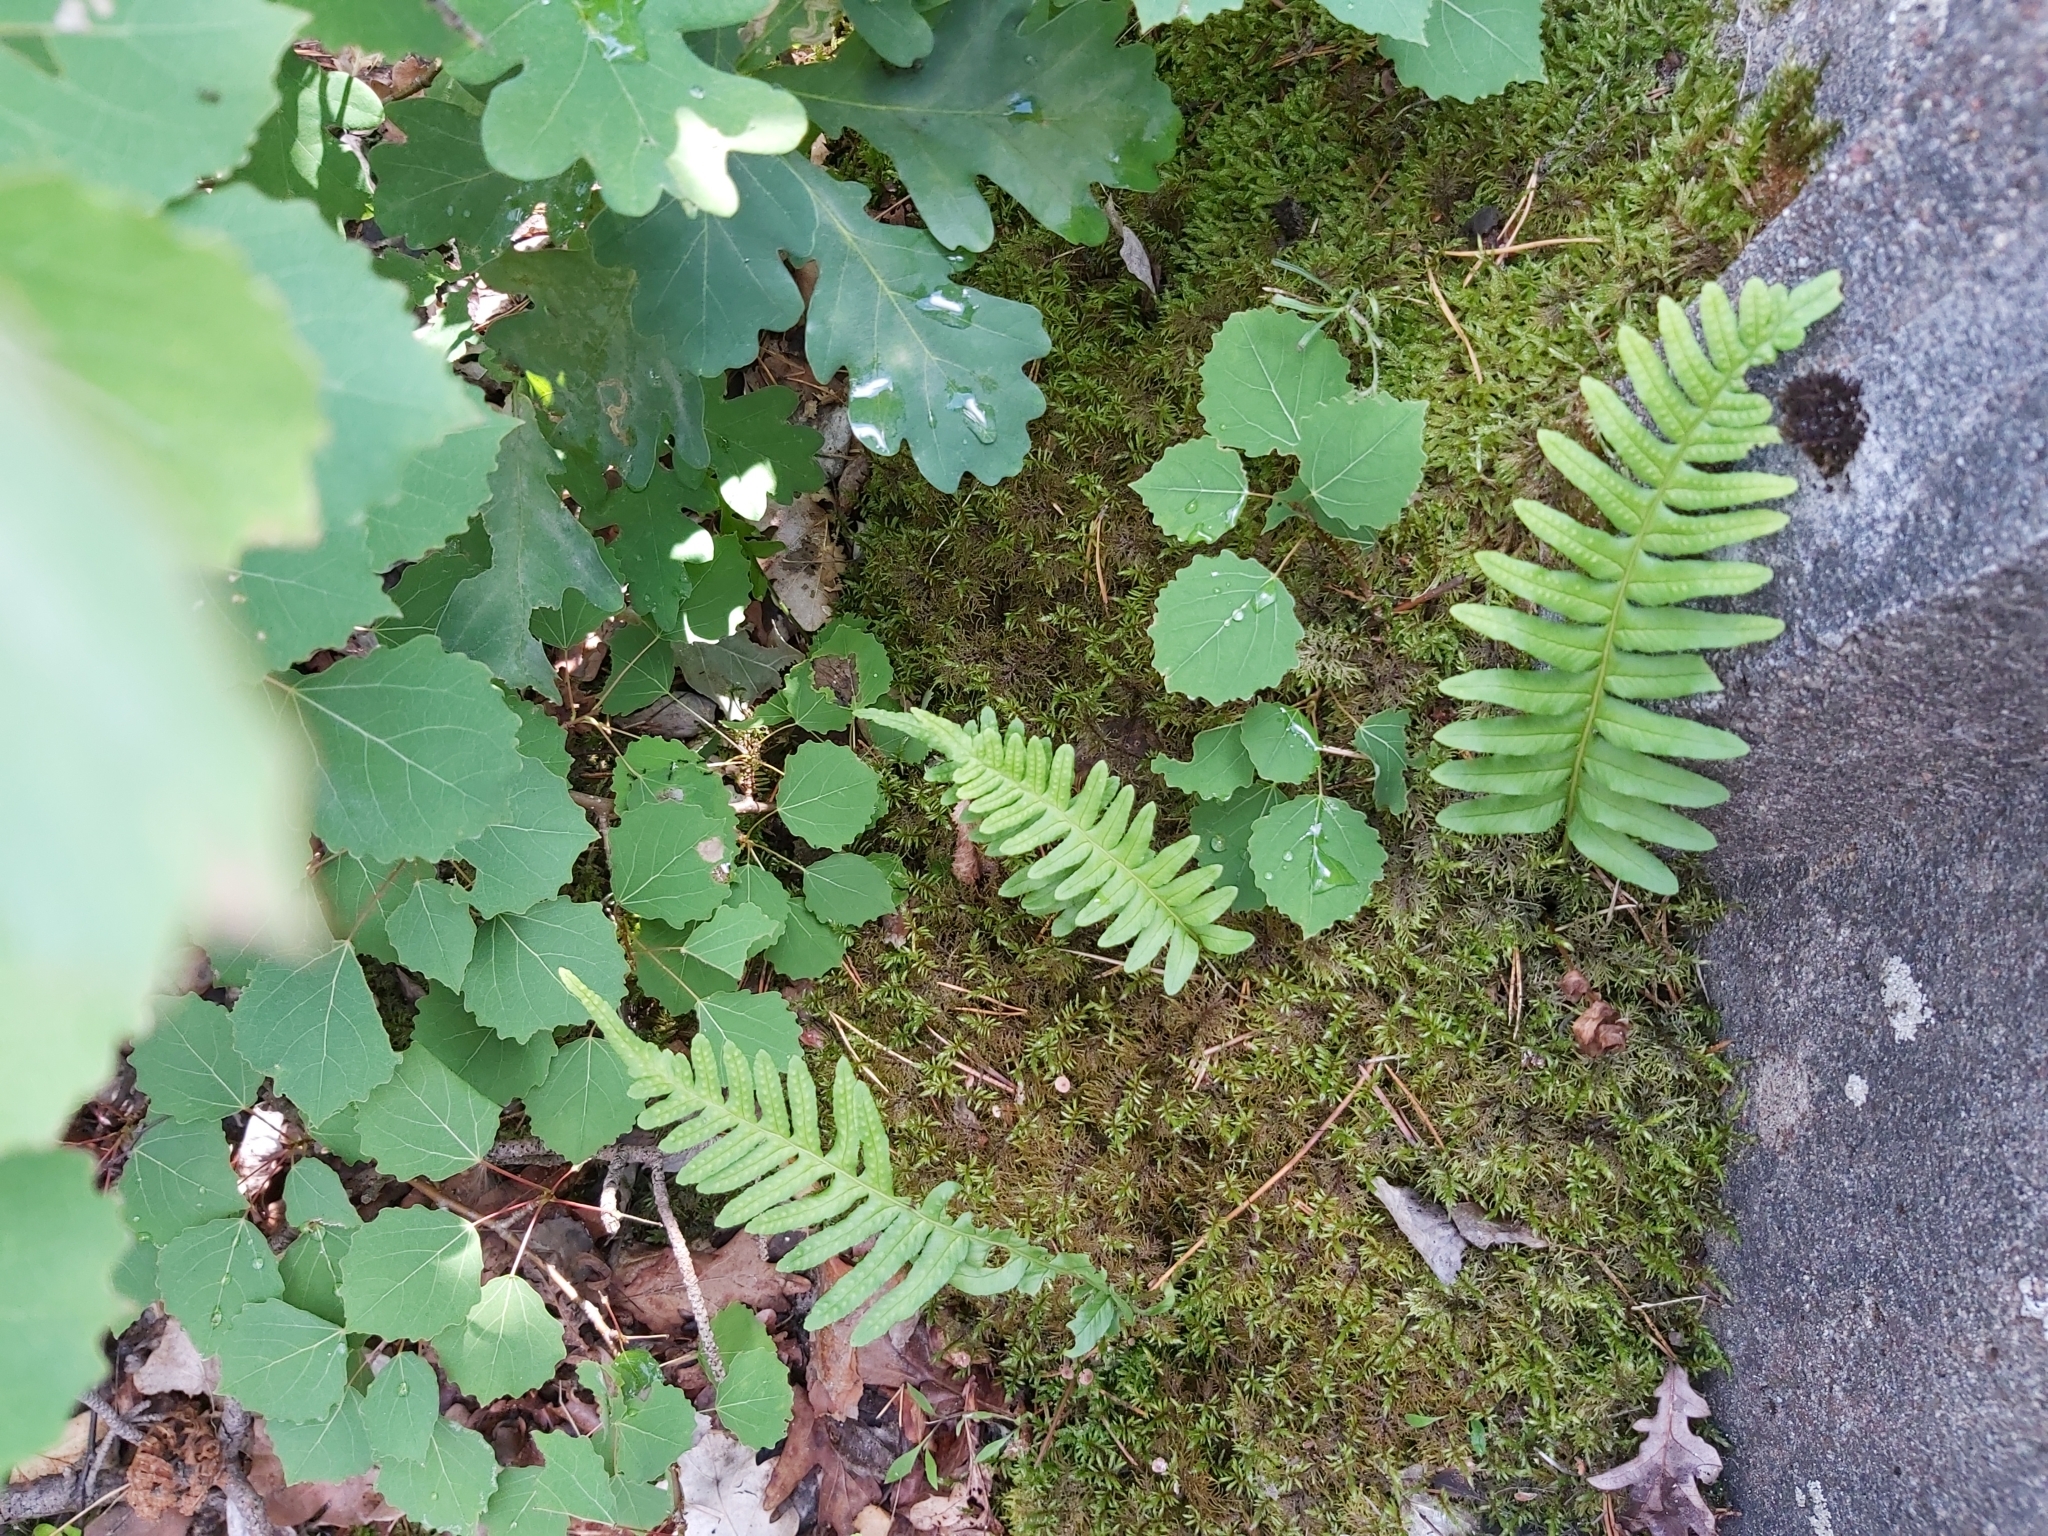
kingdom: Plantae
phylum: Tracheophyta
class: Polypodiopsida
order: Polypodiales
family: Polypodiaceae
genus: Polypodium
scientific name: Polypodium vulgare
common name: Common polypody
